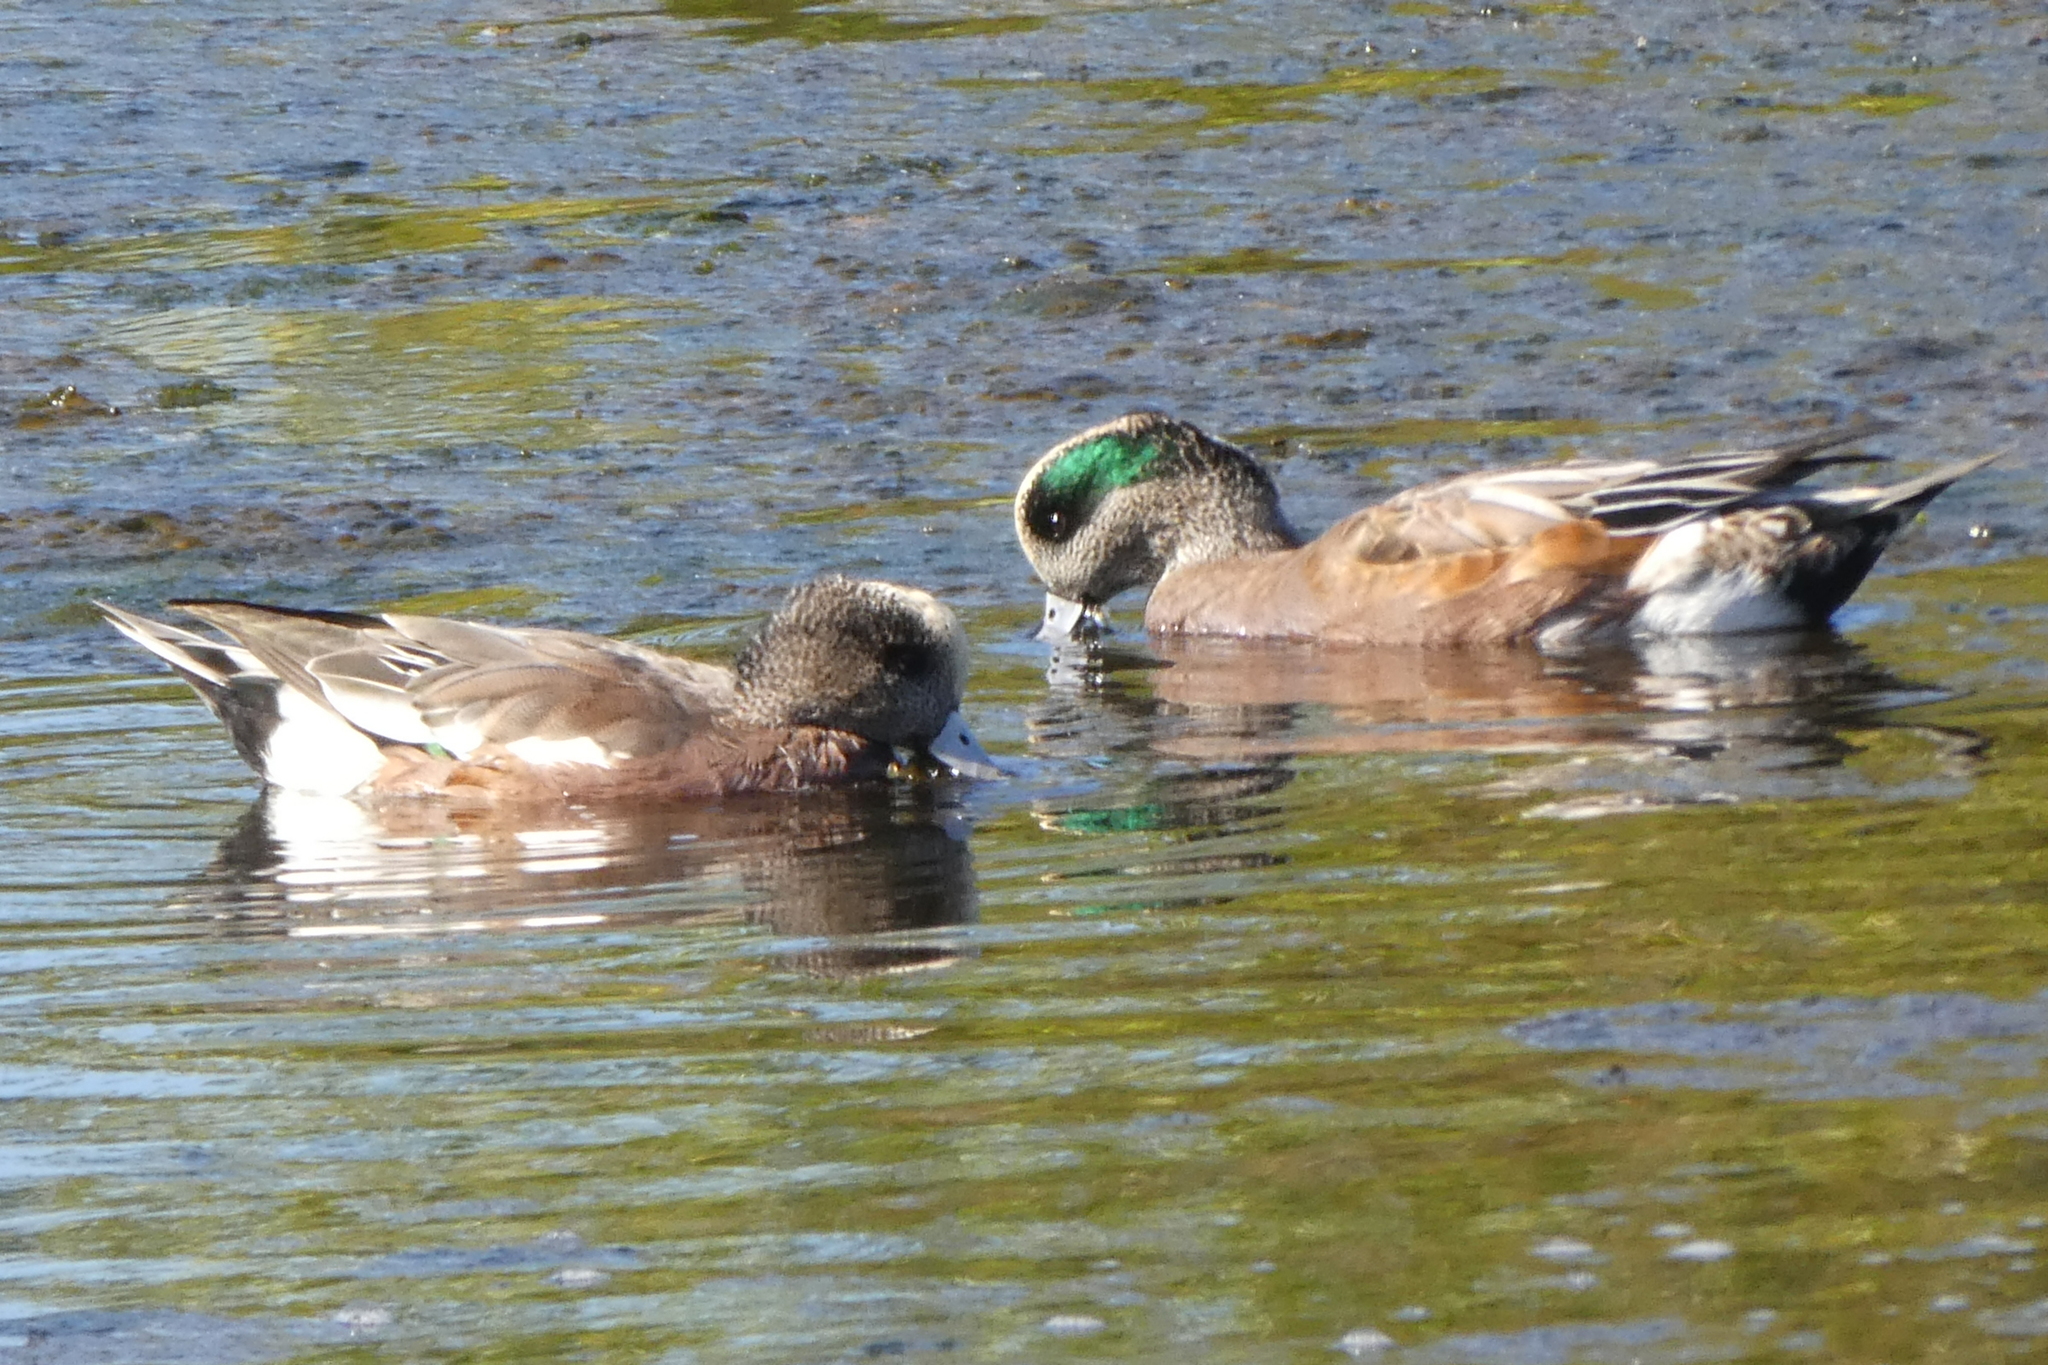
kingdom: Animalia
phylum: Chordata
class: Aves
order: Anseriformes
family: Anatidae
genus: Mareca
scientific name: Mareca americana
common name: American wigeon
